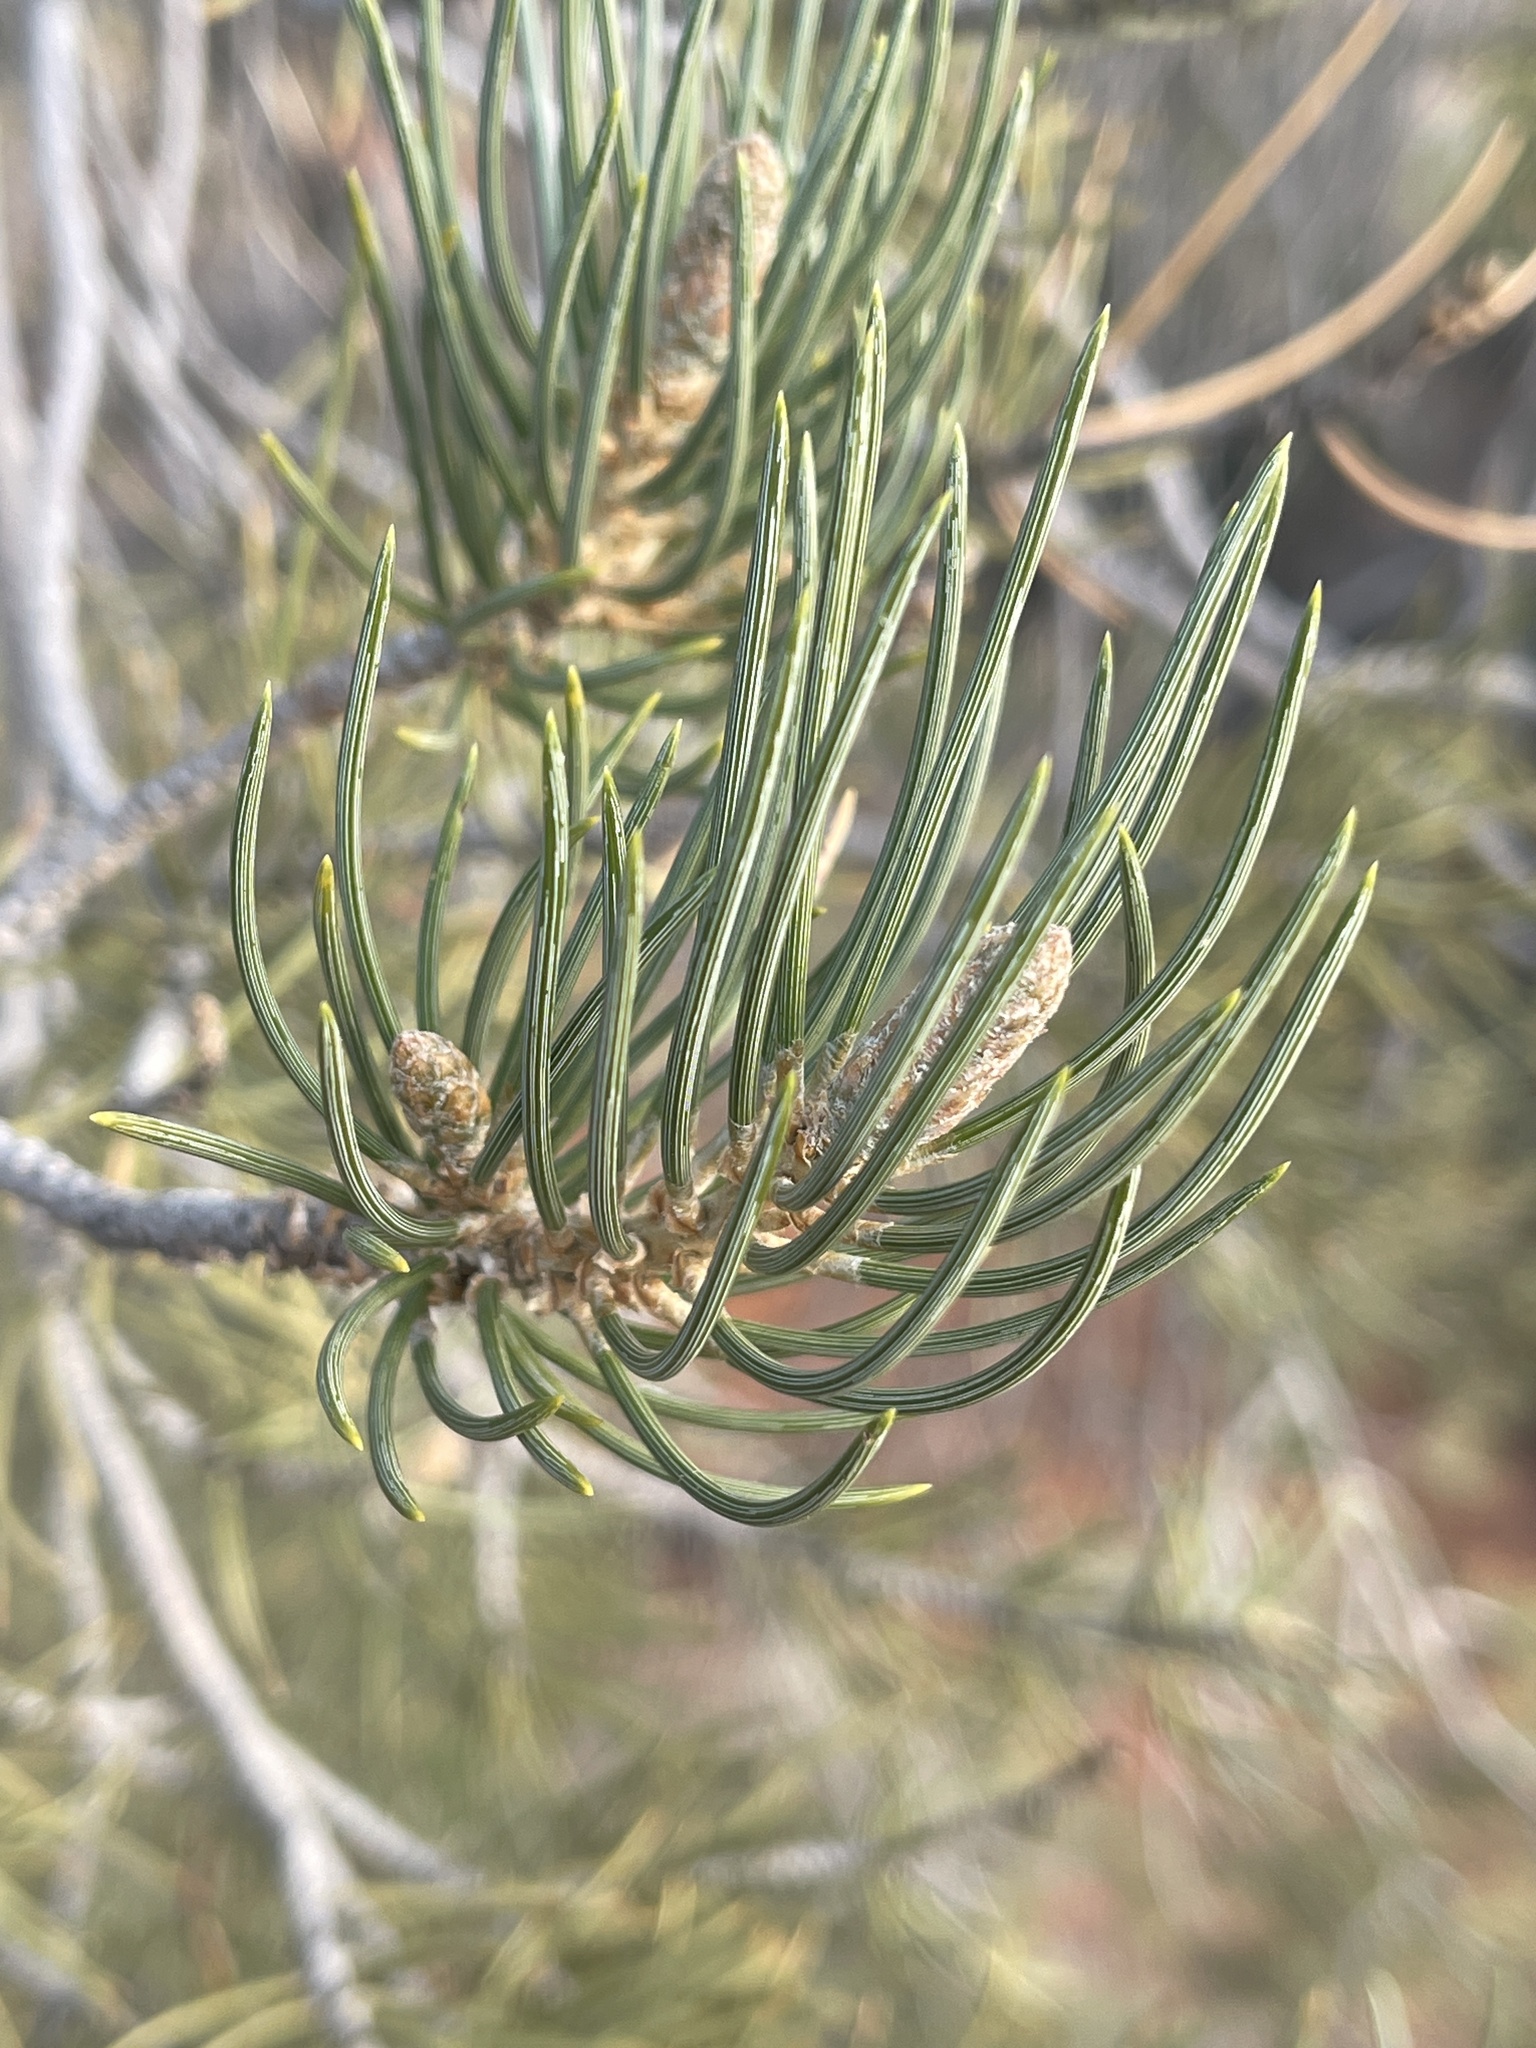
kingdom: Plantae
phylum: Tracheophyta
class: Pinopsida
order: Pinales
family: Pinaceae
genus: Pinus
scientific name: Pinus monophylla
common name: One-leaved nut pine
